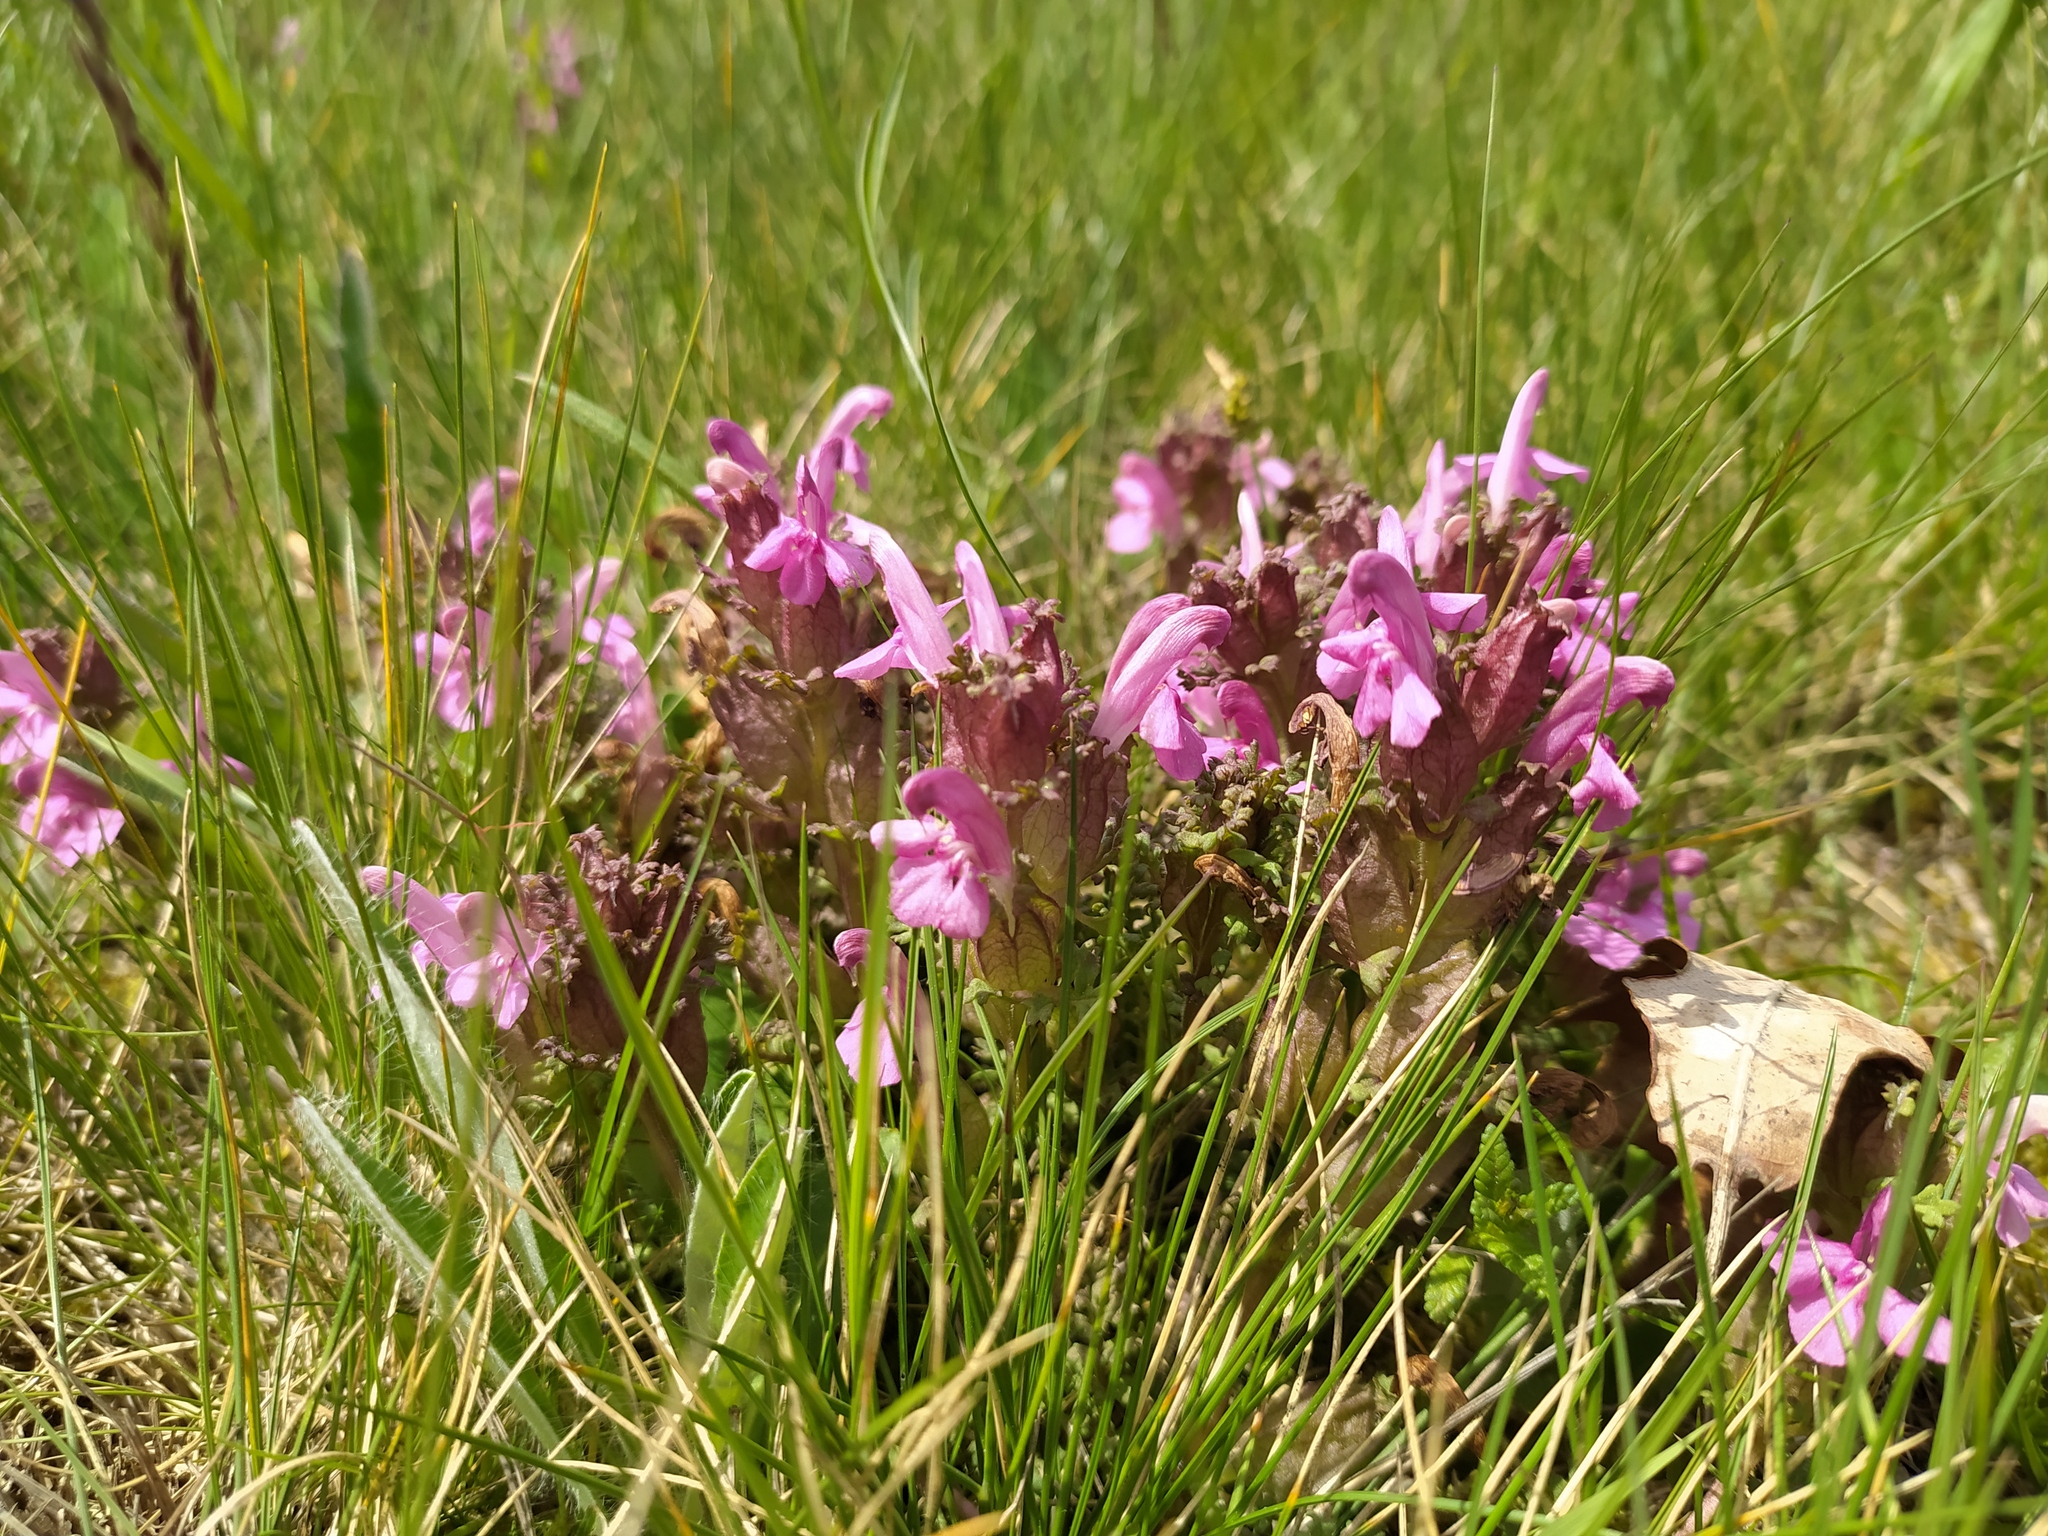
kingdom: Plantae
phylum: Tracheophyta
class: Magnoliopsida
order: Lamiales
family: Orobanchaceae
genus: Pedicularis
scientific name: Pedicularis sylvatica
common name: Lousewort
